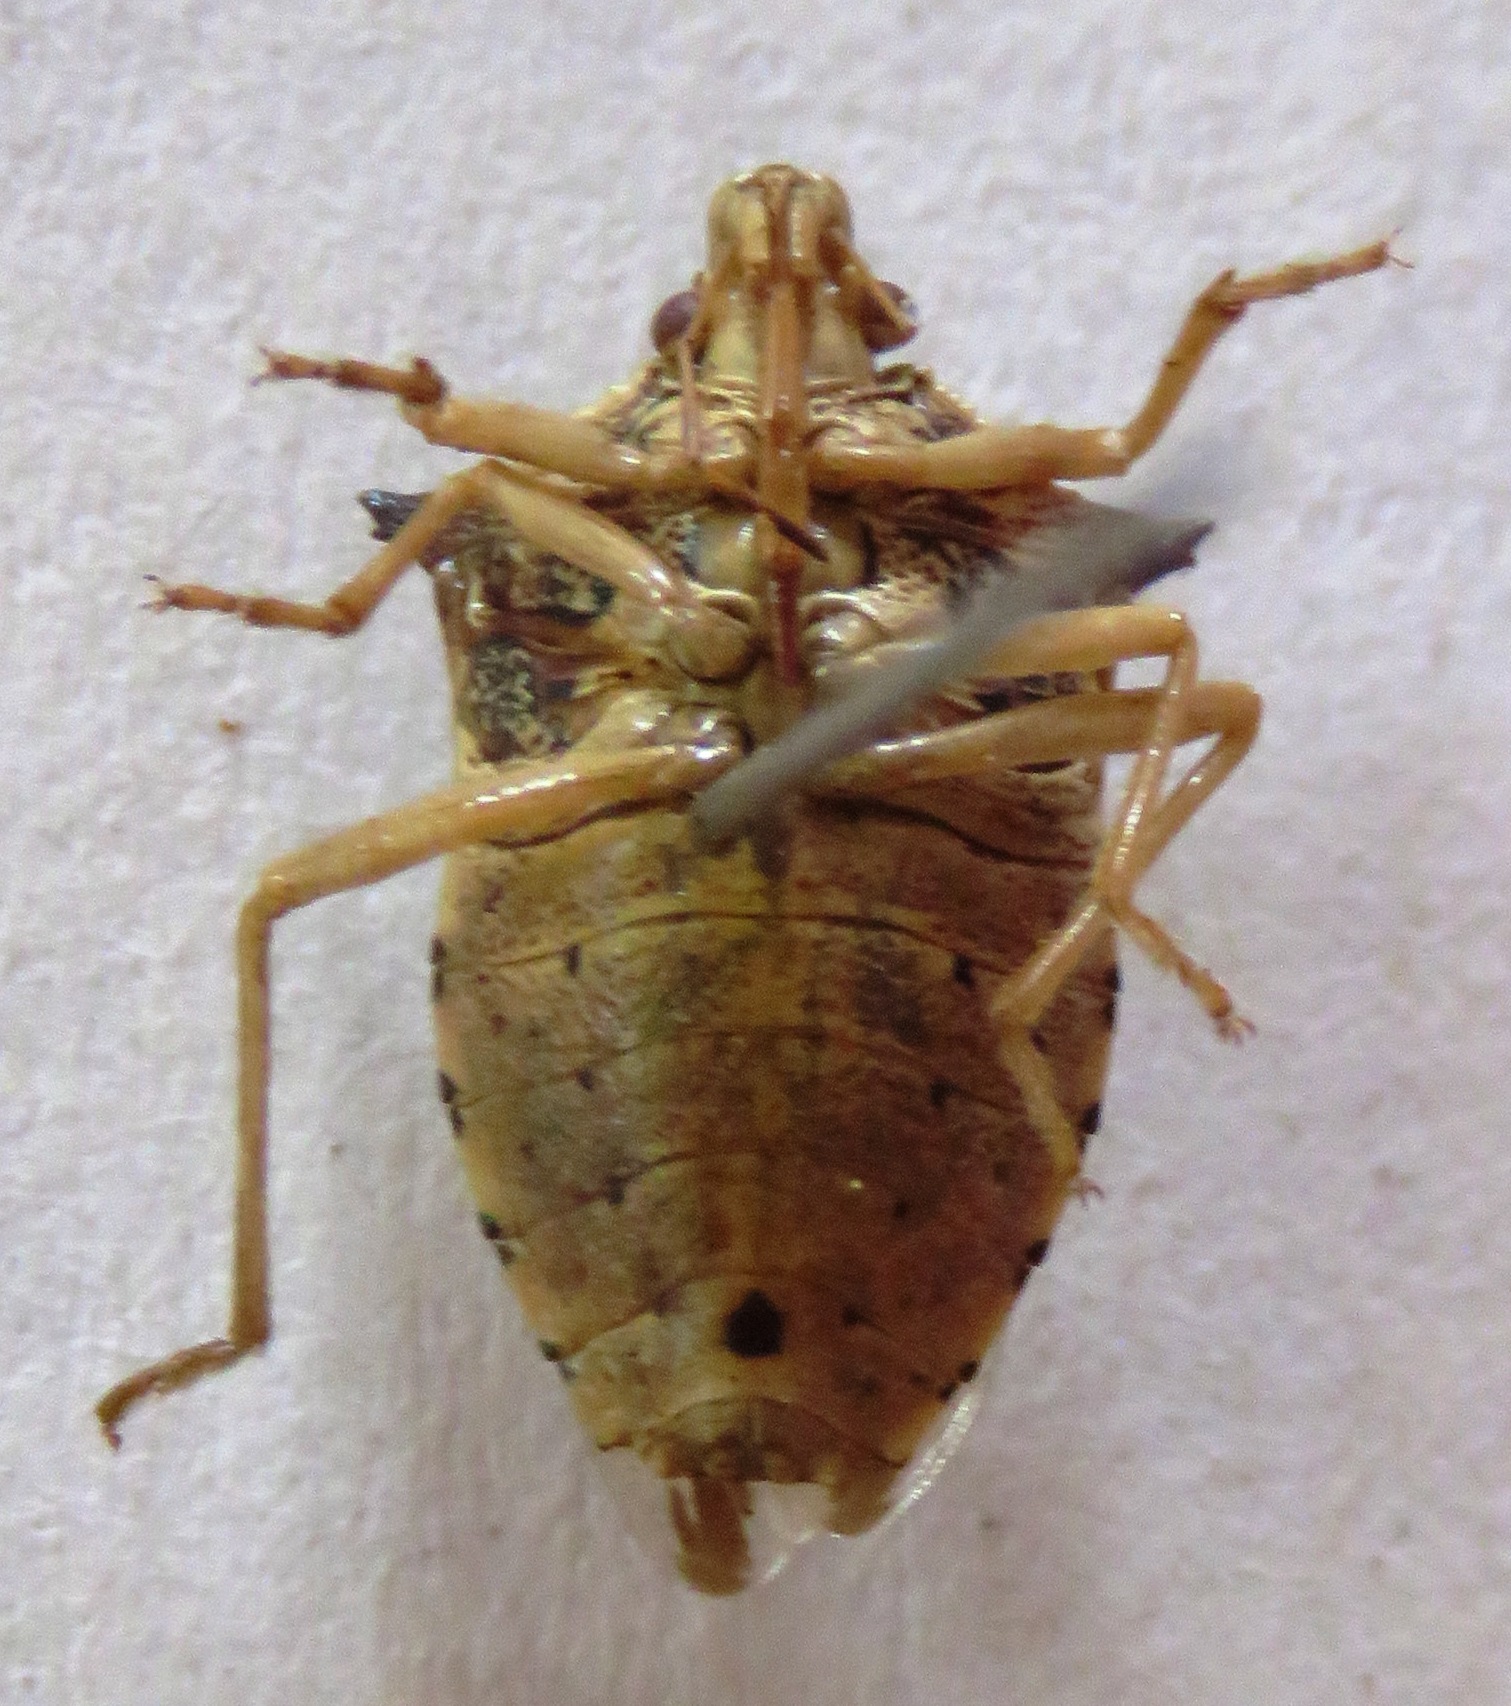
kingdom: Animalia
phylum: Arthropoda
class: Insecta
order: Hemiptera
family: Pentatomidae
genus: Podisus
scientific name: Podisus sagitta
